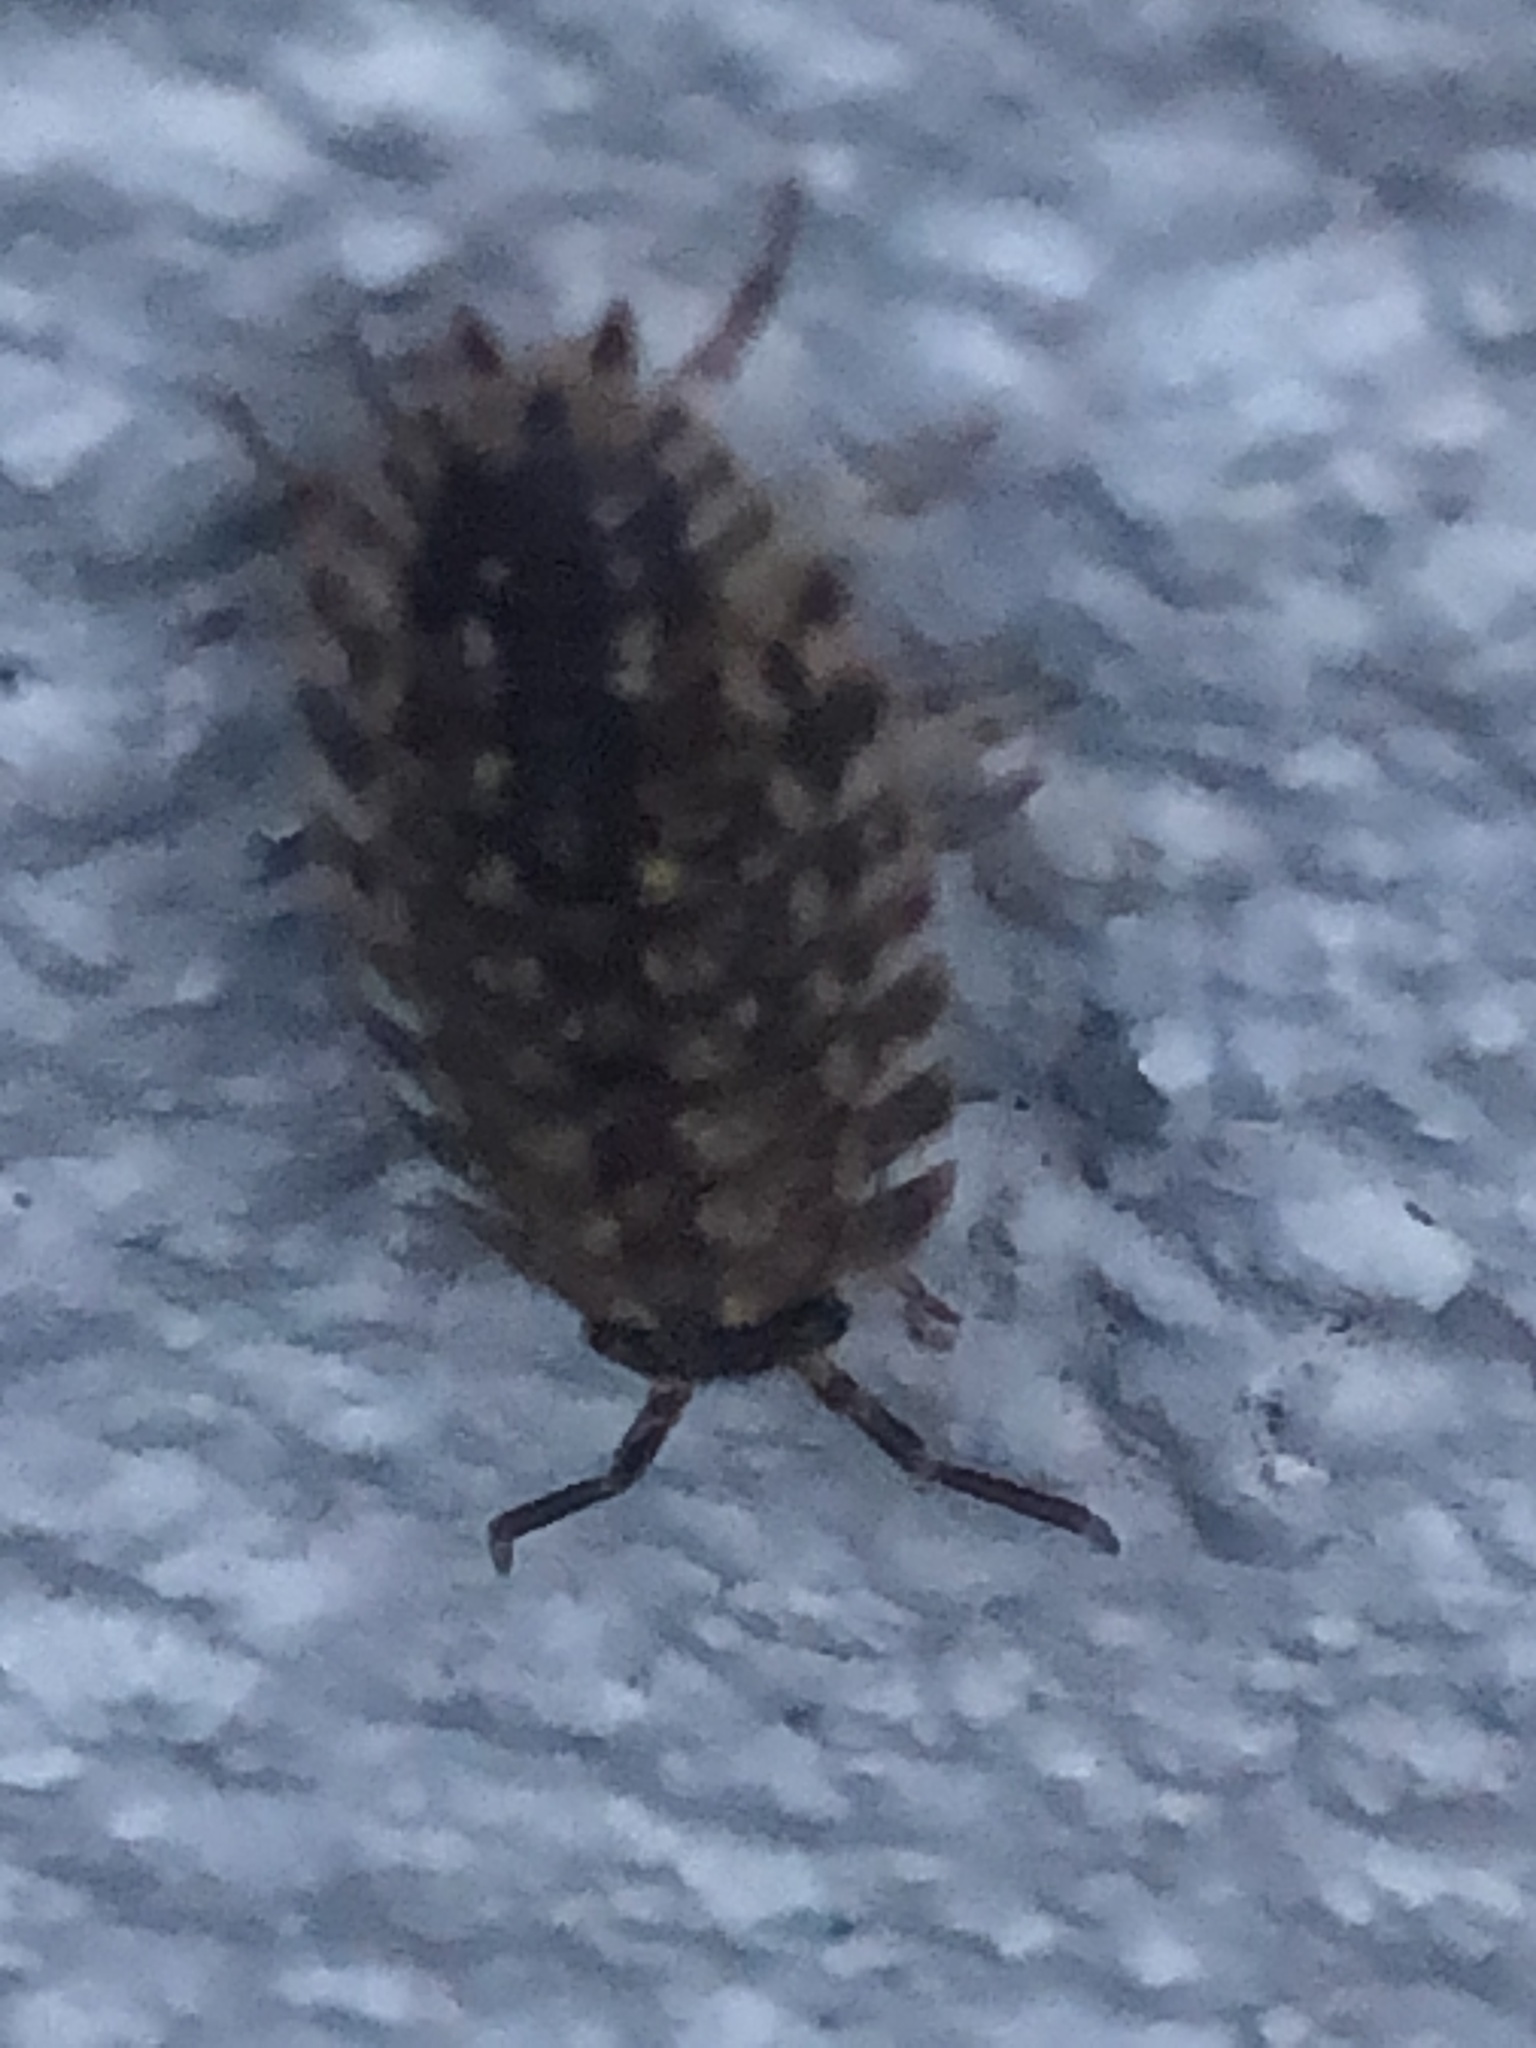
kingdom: Animalia
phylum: Arthropoda
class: Malacostraca
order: Isopoda
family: Porcellionidae
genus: Porcellio
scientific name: Porcellio spinicornis
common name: Painted woodlouse
